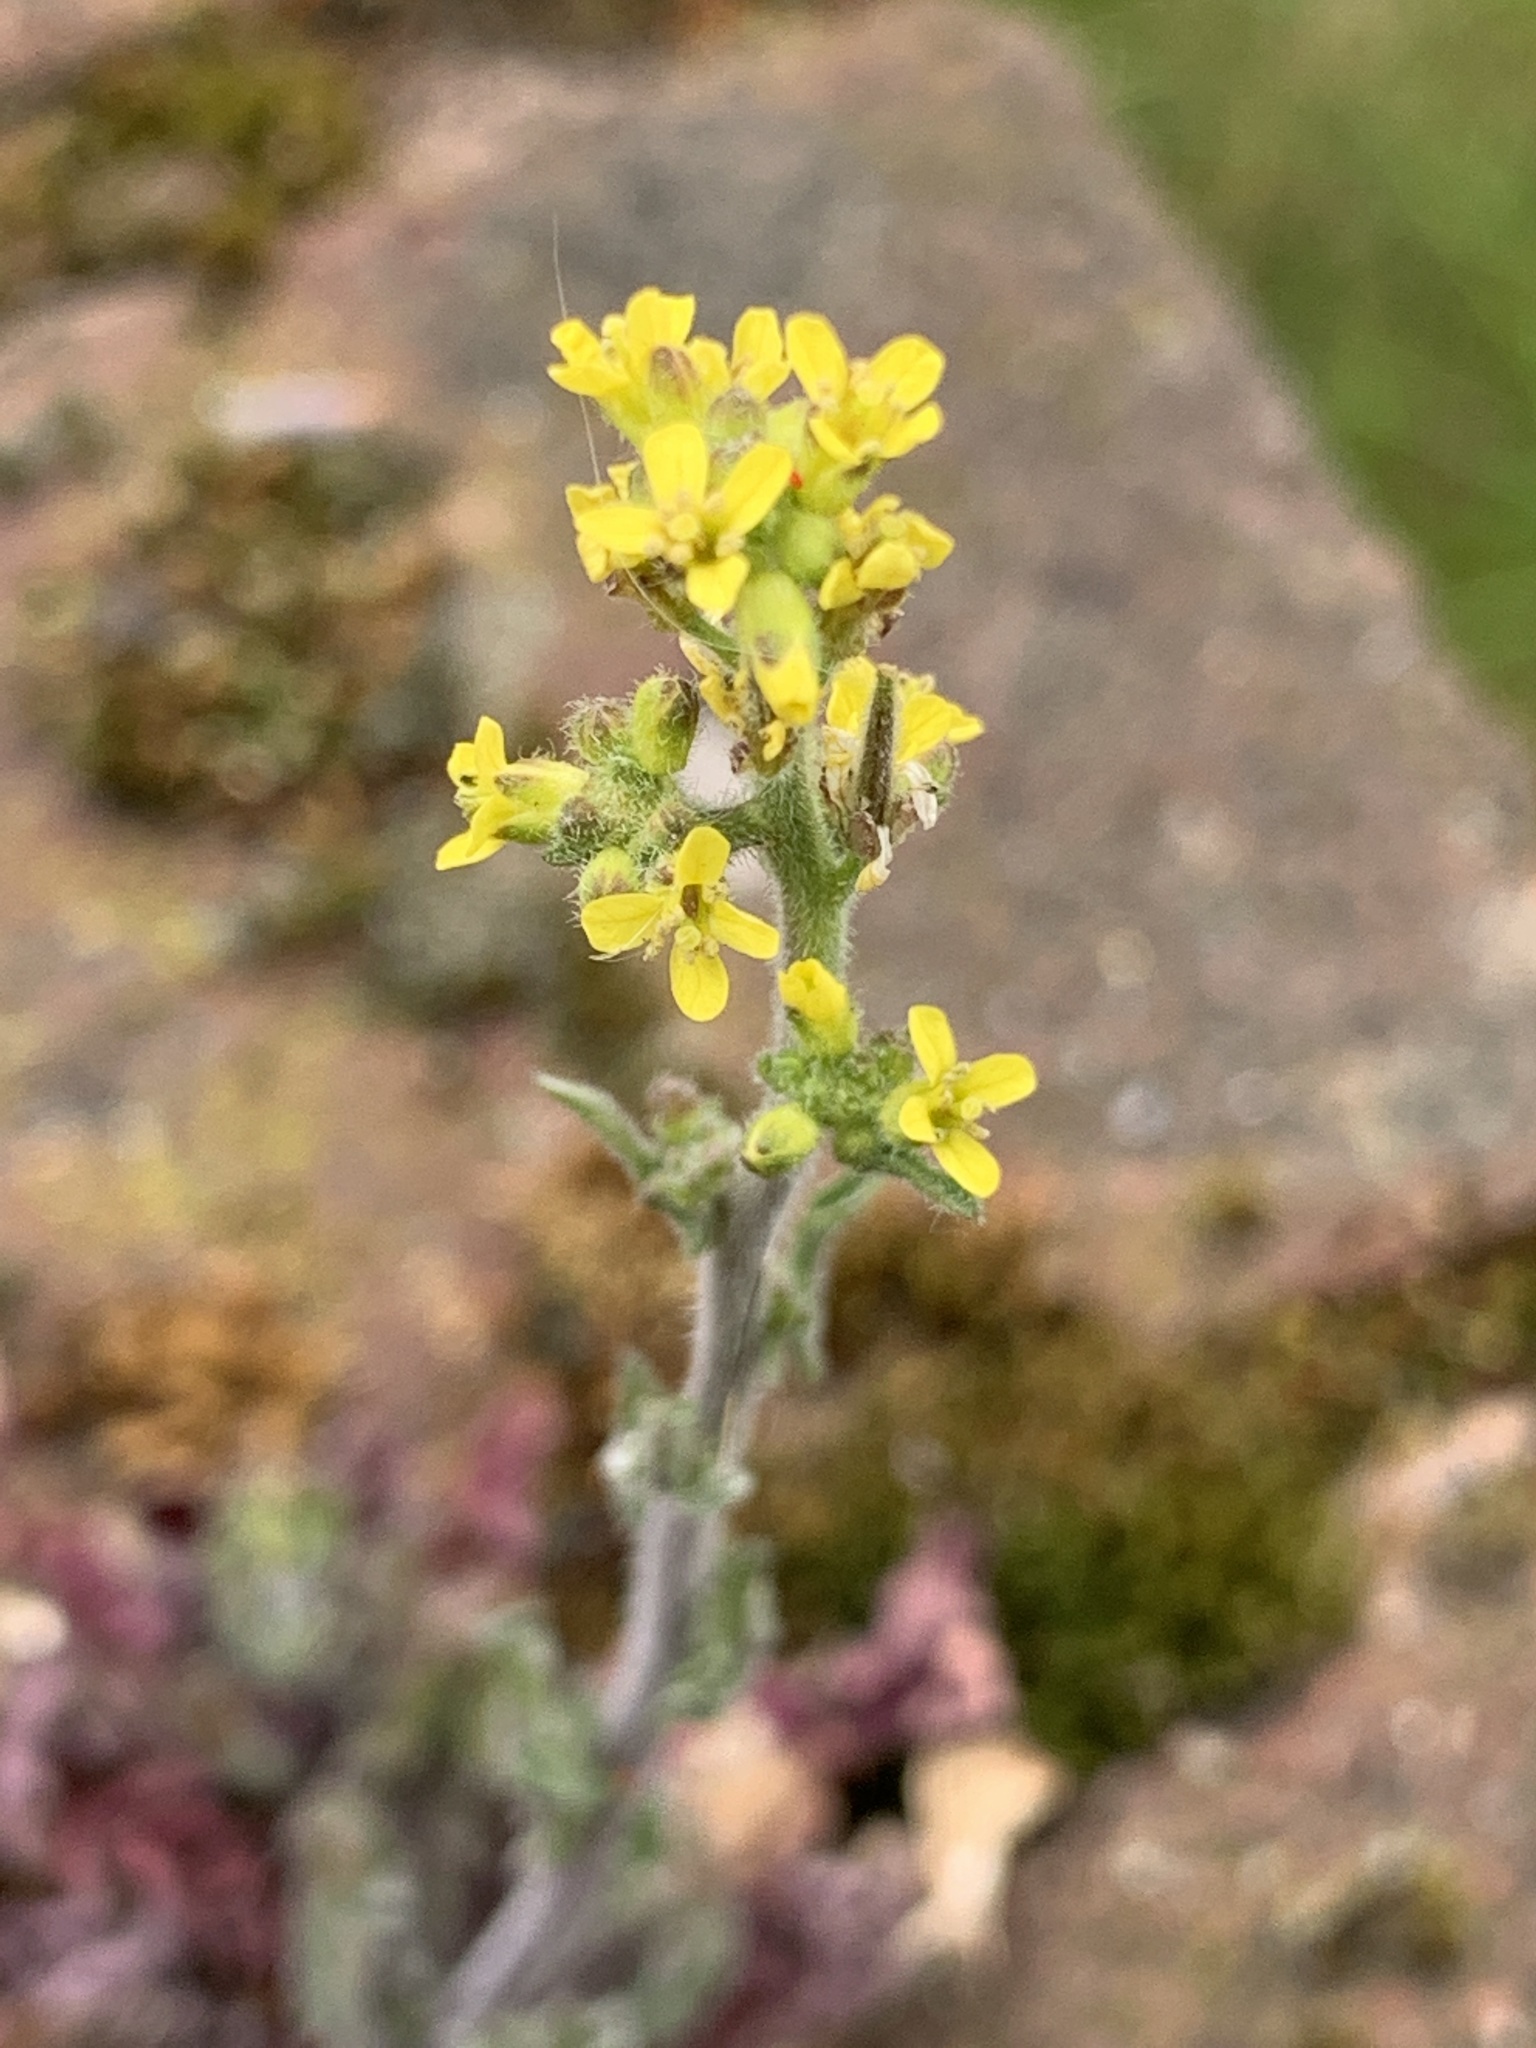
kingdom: Plantae
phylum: Tracheophyta
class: Magnoliopsida
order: Brassicales
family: Brassicaceae
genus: Sisymbrium
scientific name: Sisymbrium officinale
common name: Hedge mustard
